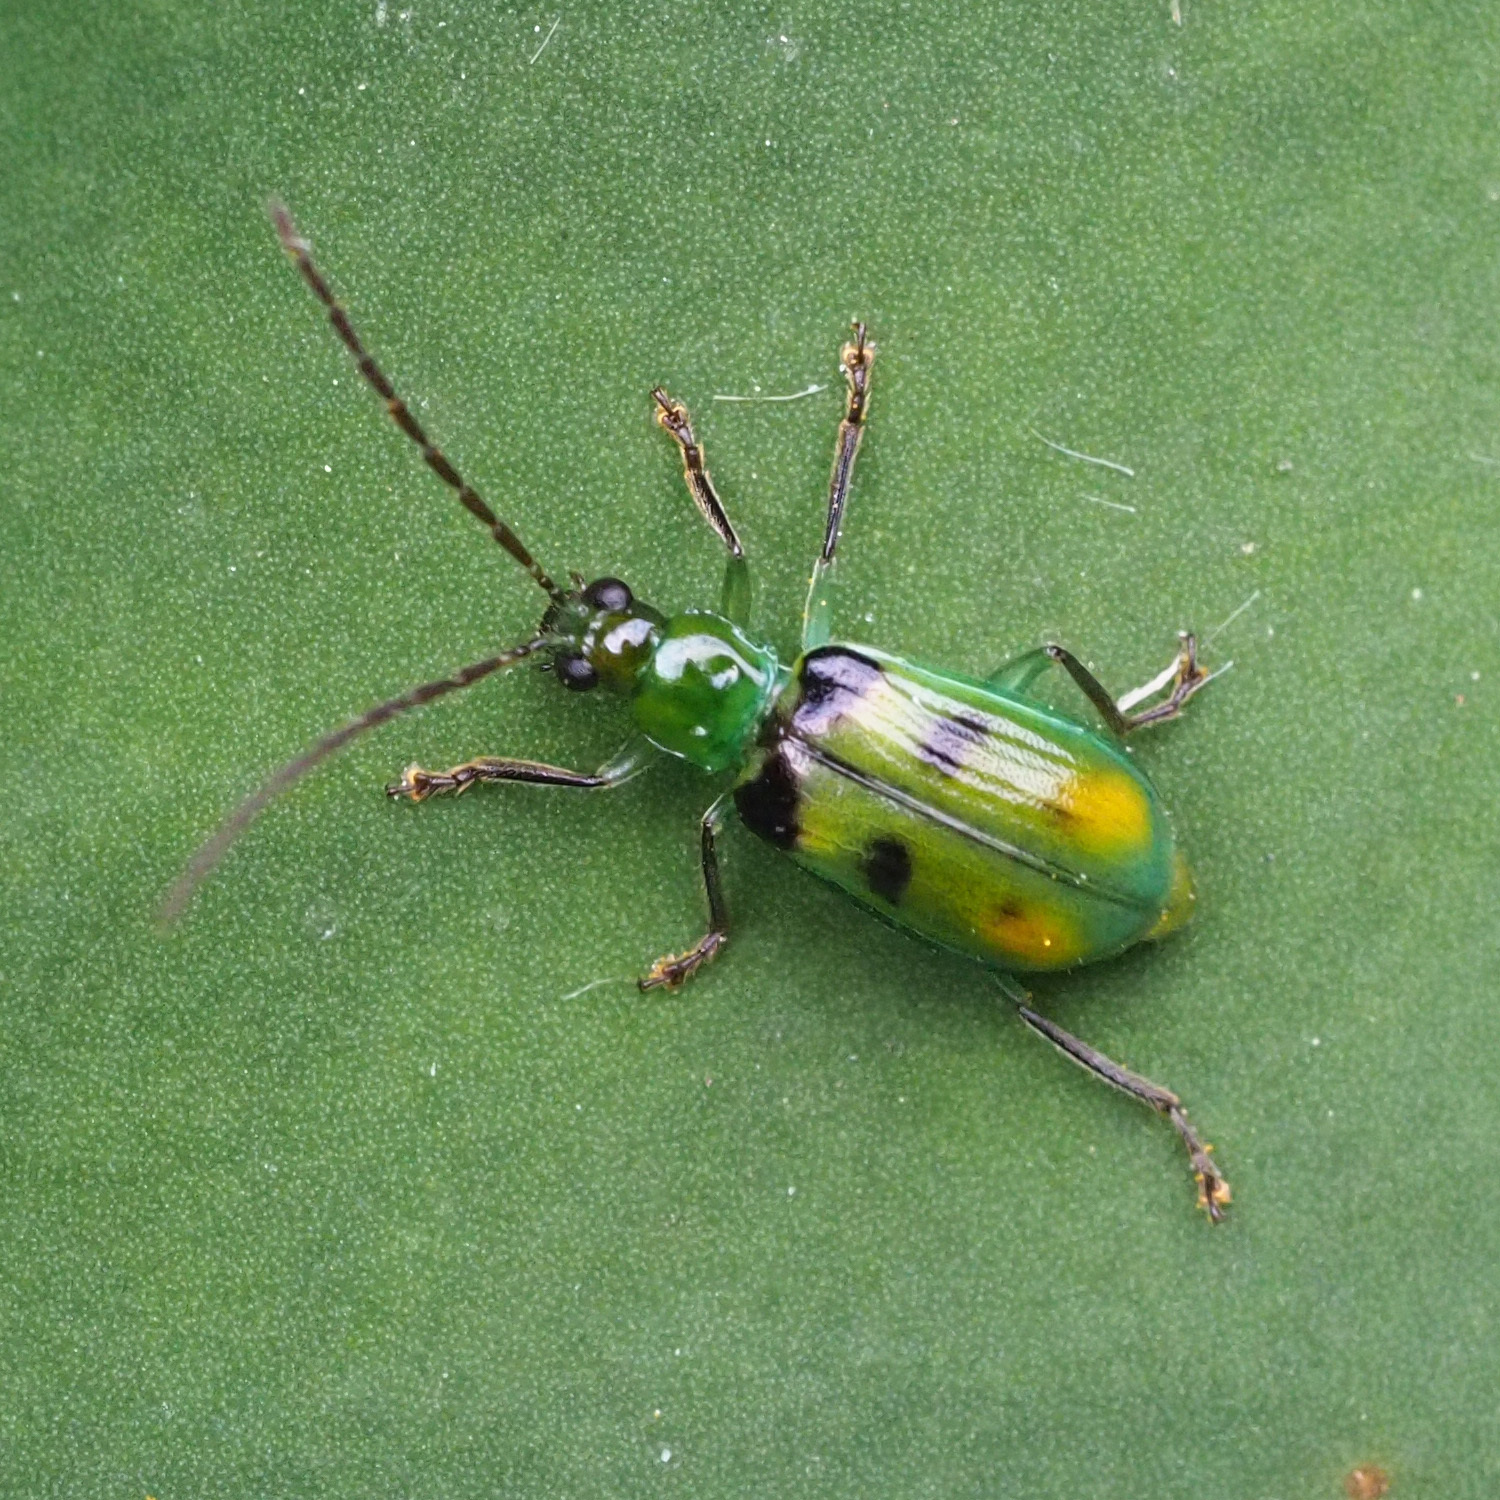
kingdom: Animalia
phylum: Arthropoda
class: Insecta
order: Coleoptera
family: Chrysomelidae
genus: Diabrotica
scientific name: Diabrotica viridula
